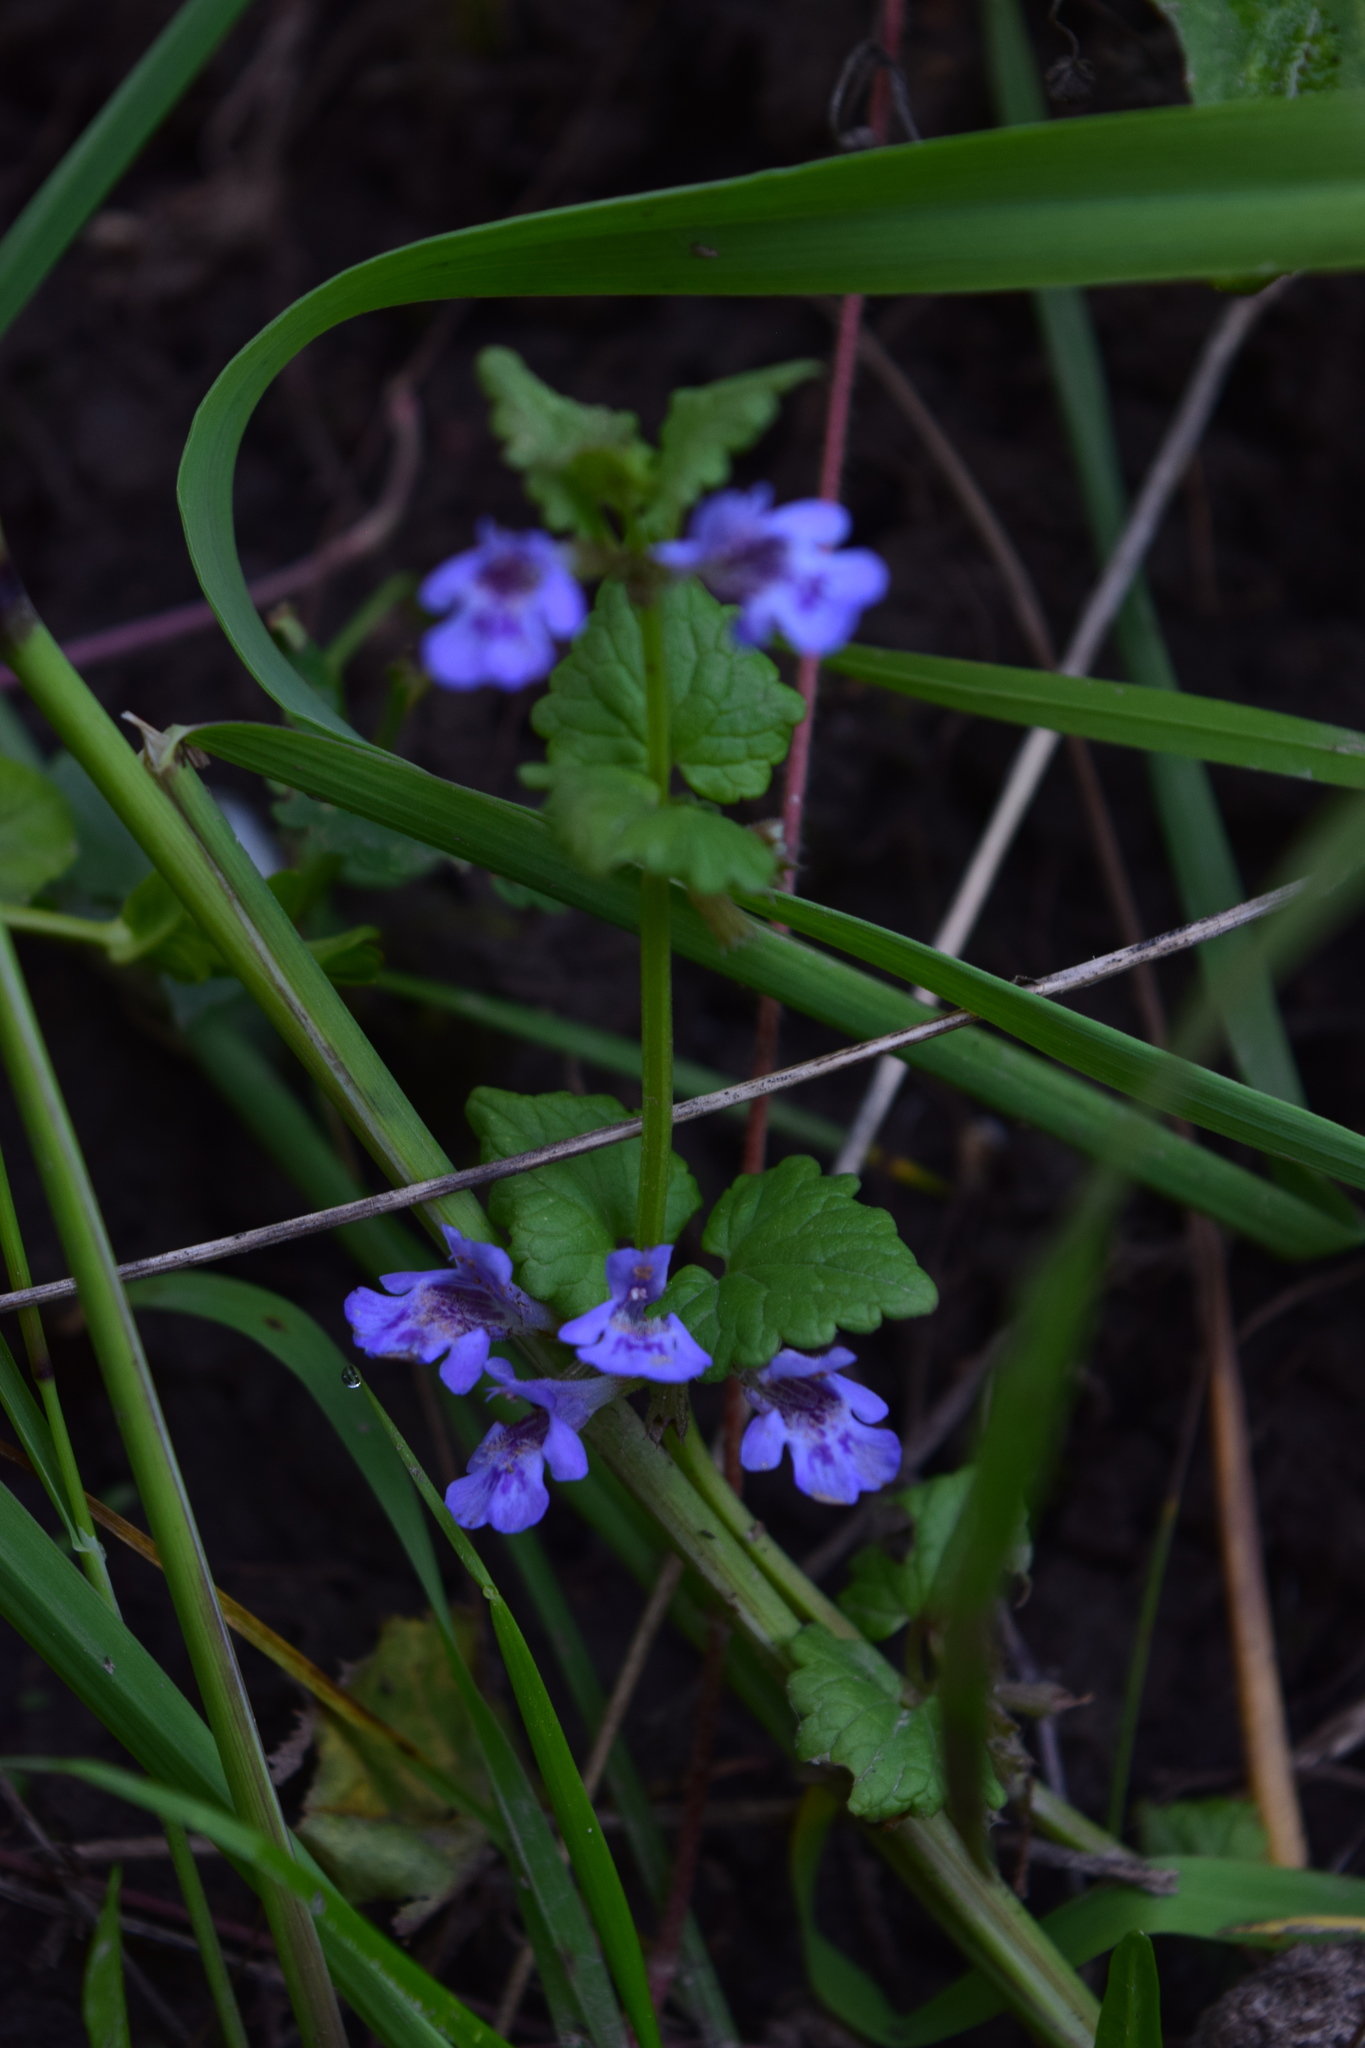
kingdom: Plantae
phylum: Tracheophyta
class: Magnoliopsida
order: Lamiales
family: Lamiaceae
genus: Glechoma
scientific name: Glechoma hederacea
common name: Ground ivy
